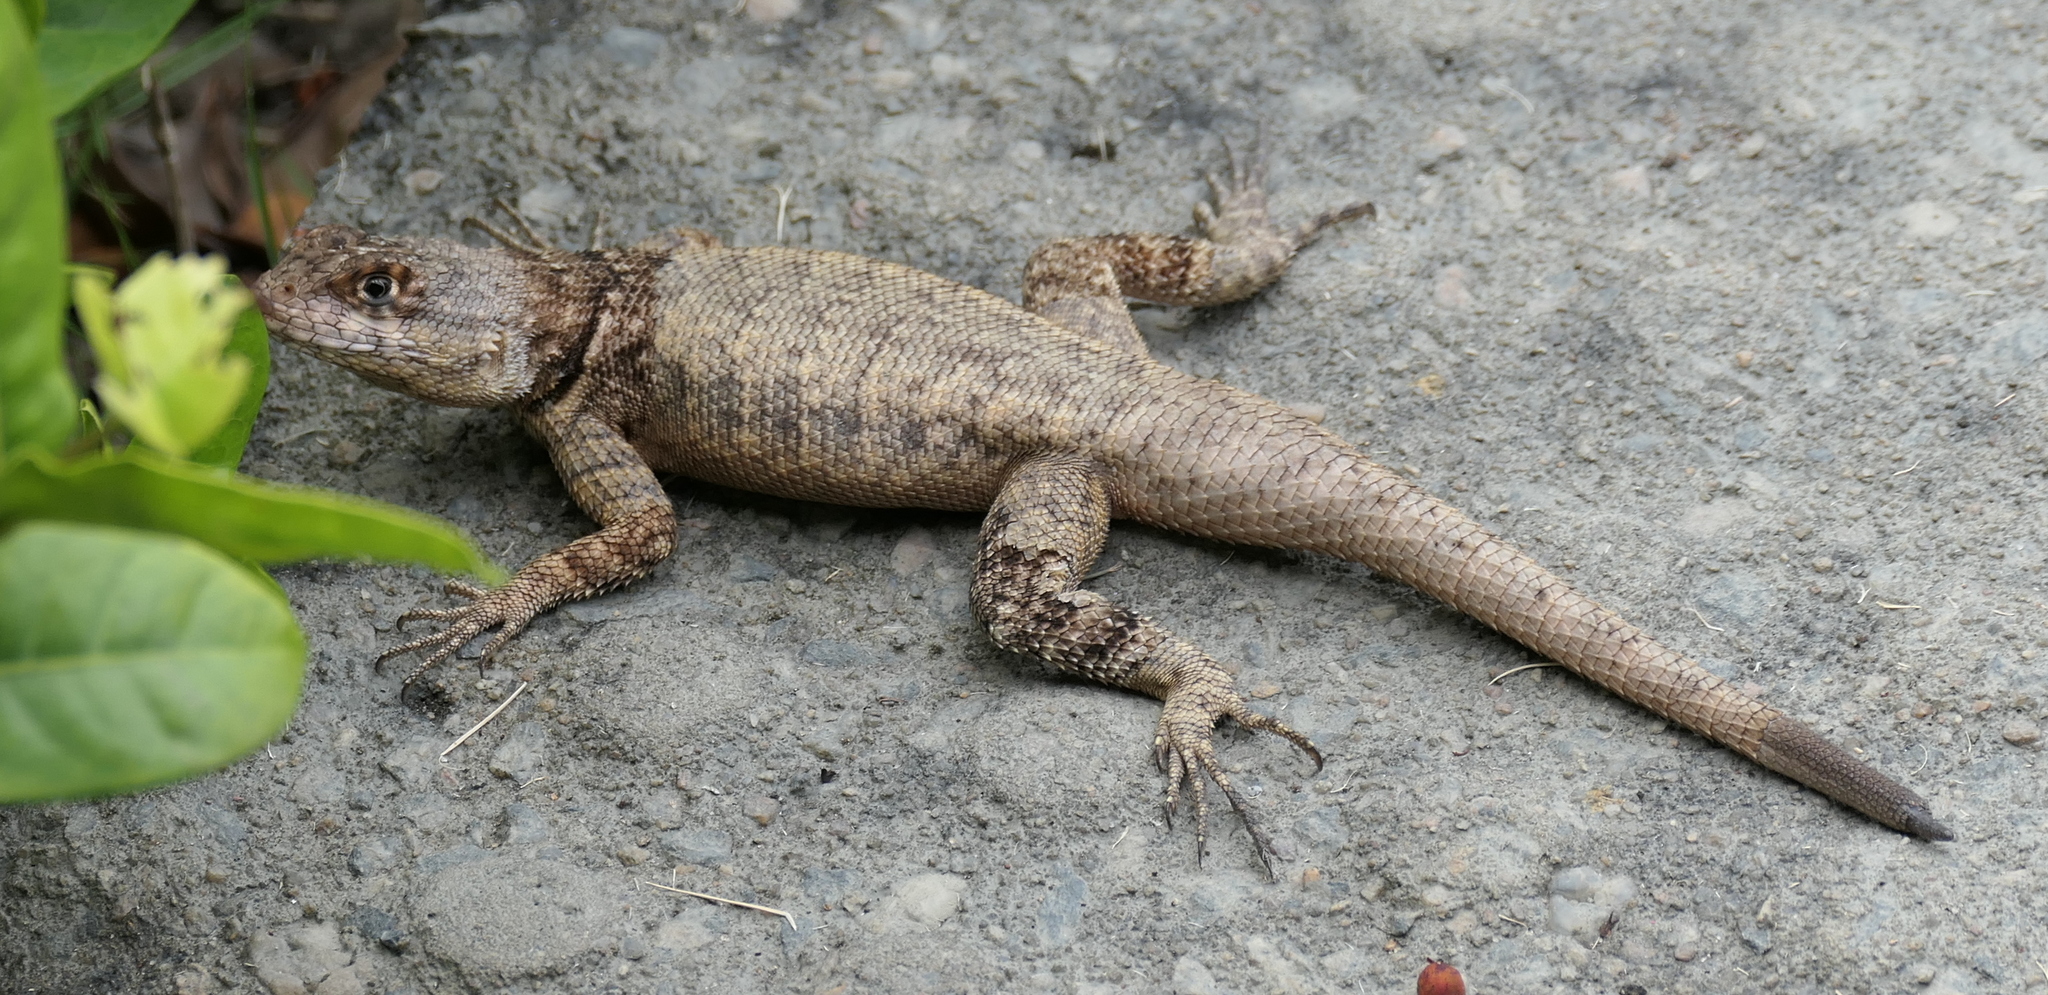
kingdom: Animalia
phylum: Chordata
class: Squamata
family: Tropiduridae
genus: Tropidurus
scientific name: Tropidurus hispidus
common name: Peters' lava lizard
